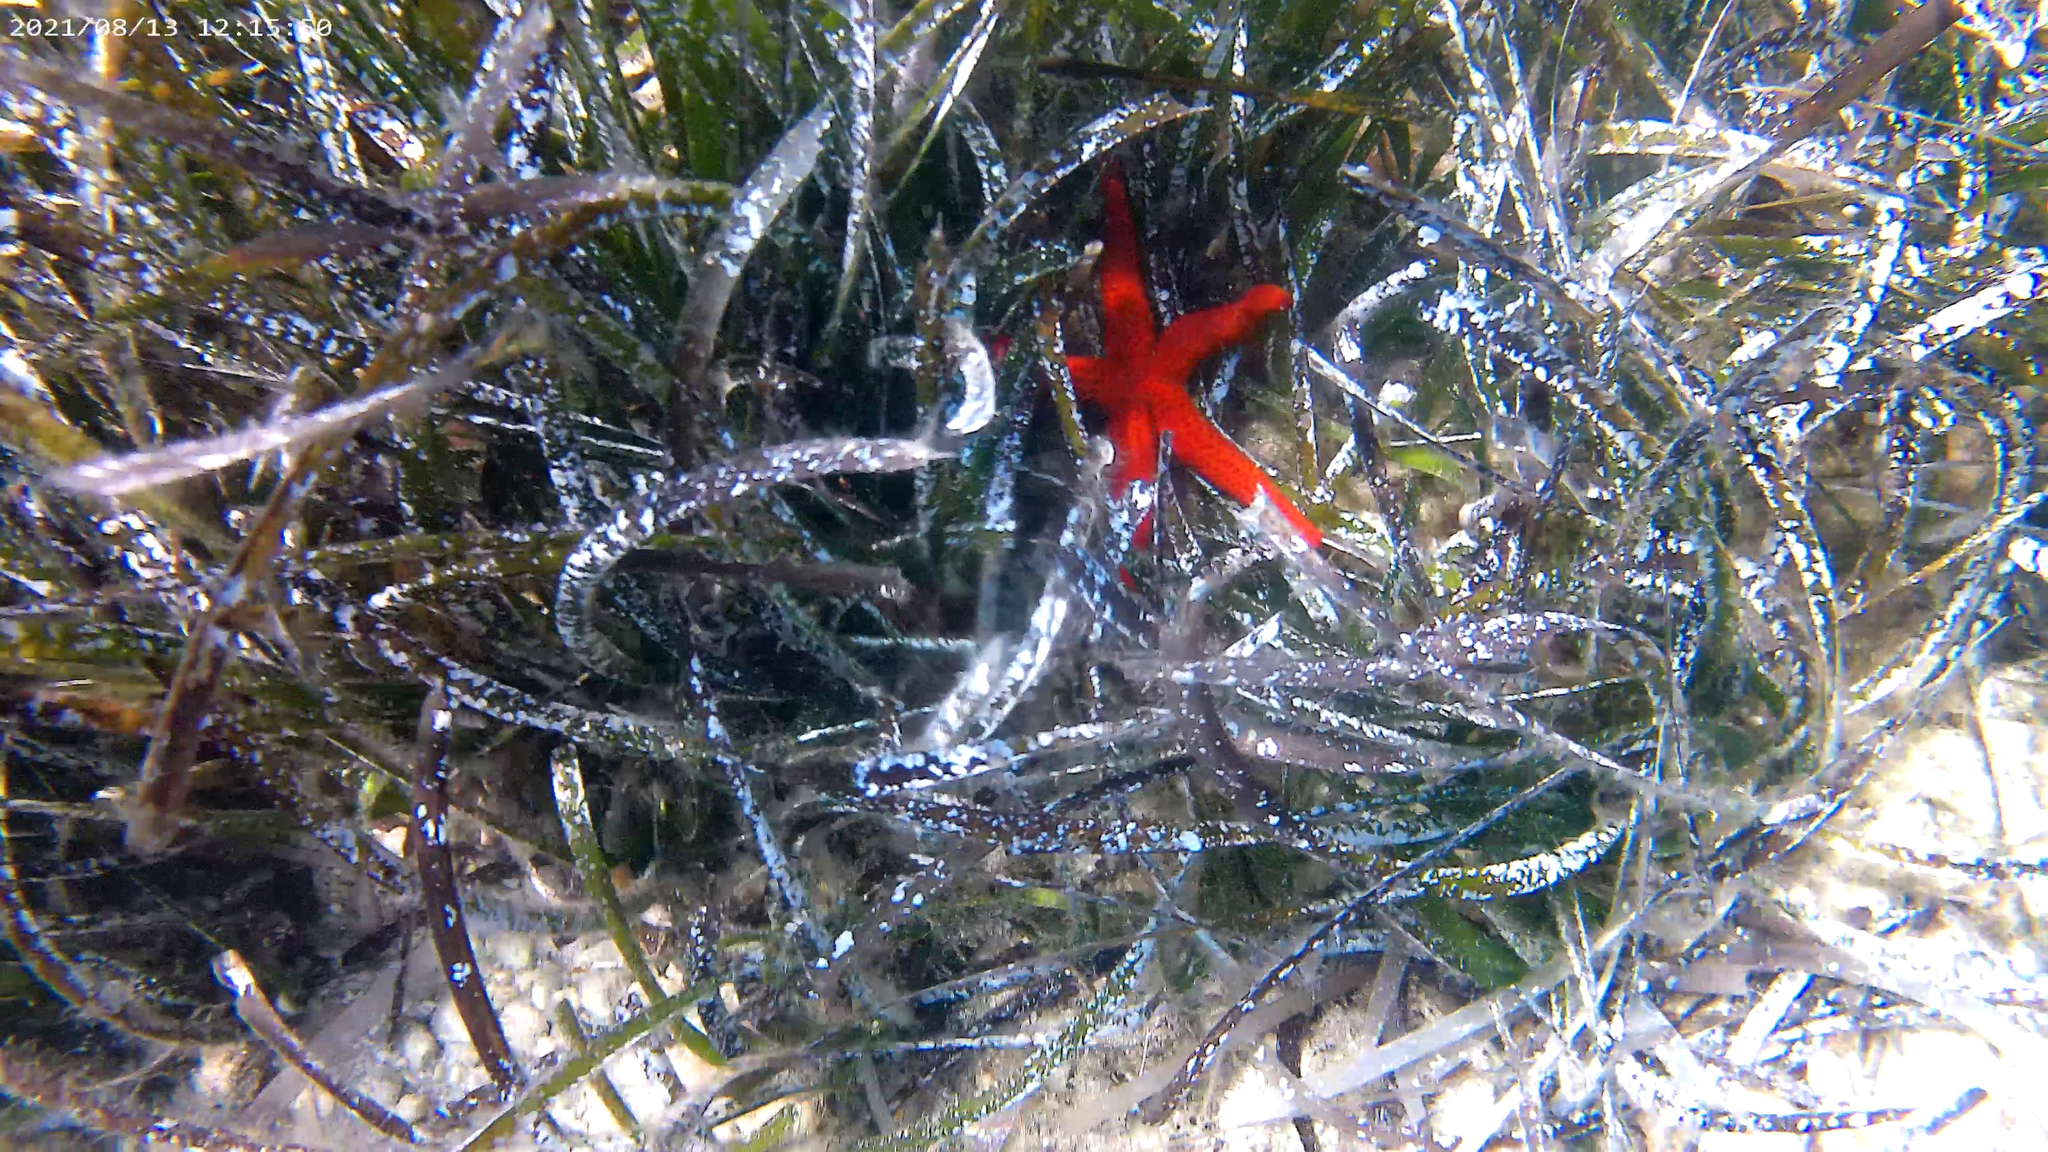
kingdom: Animalia
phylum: Echinodermata
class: Asteroidea
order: Spinulosida
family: Echinasteridae
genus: Echinaster
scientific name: Echinaster sepositus
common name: Red starfish
